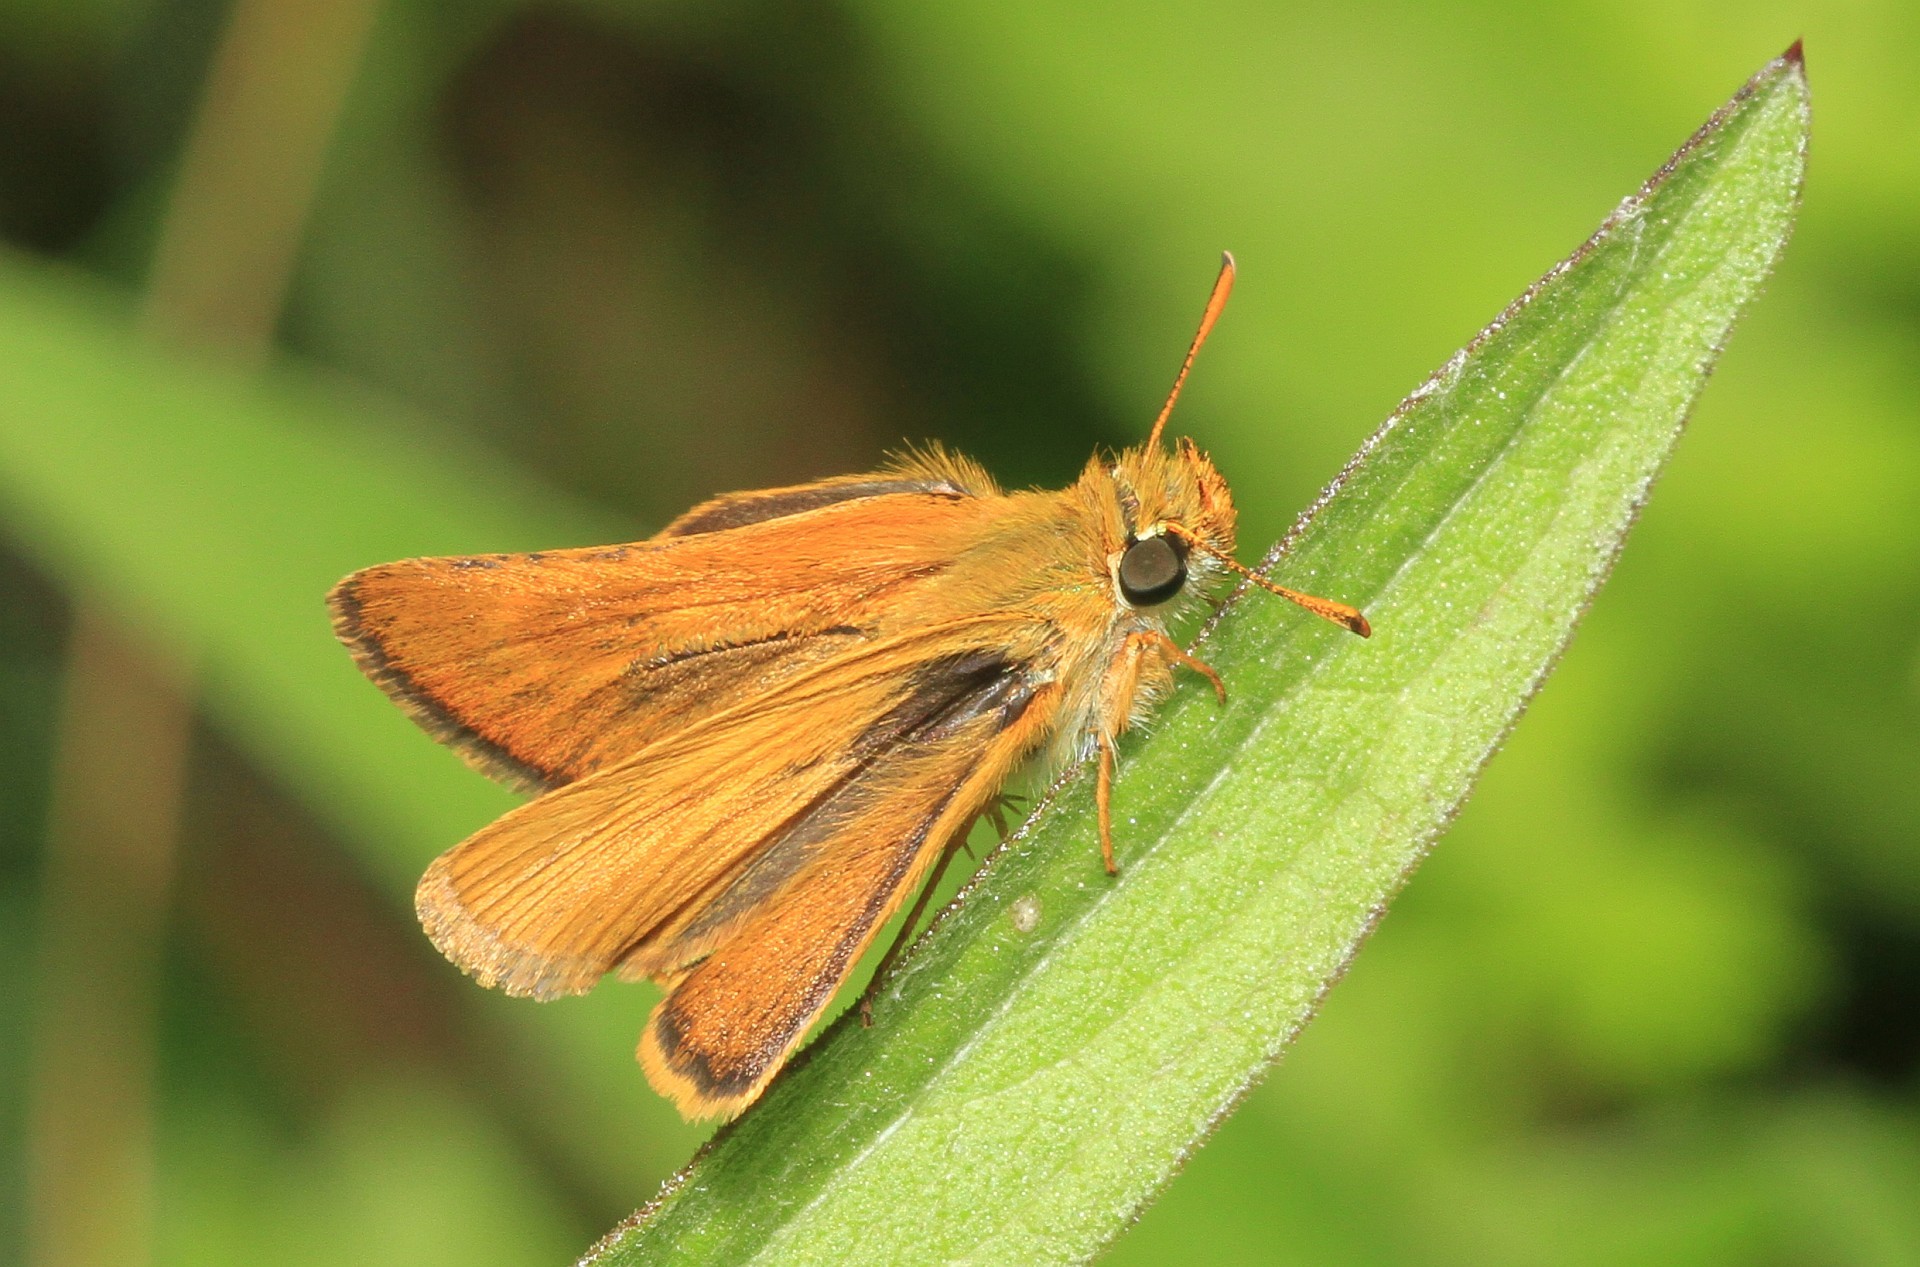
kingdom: Animalia
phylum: Arthropoda
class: Insecta
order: Lepidoptera
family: Hesperiidae
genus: Thymelicus
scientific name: Thymelicus acteon
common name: Lulworth skipper
